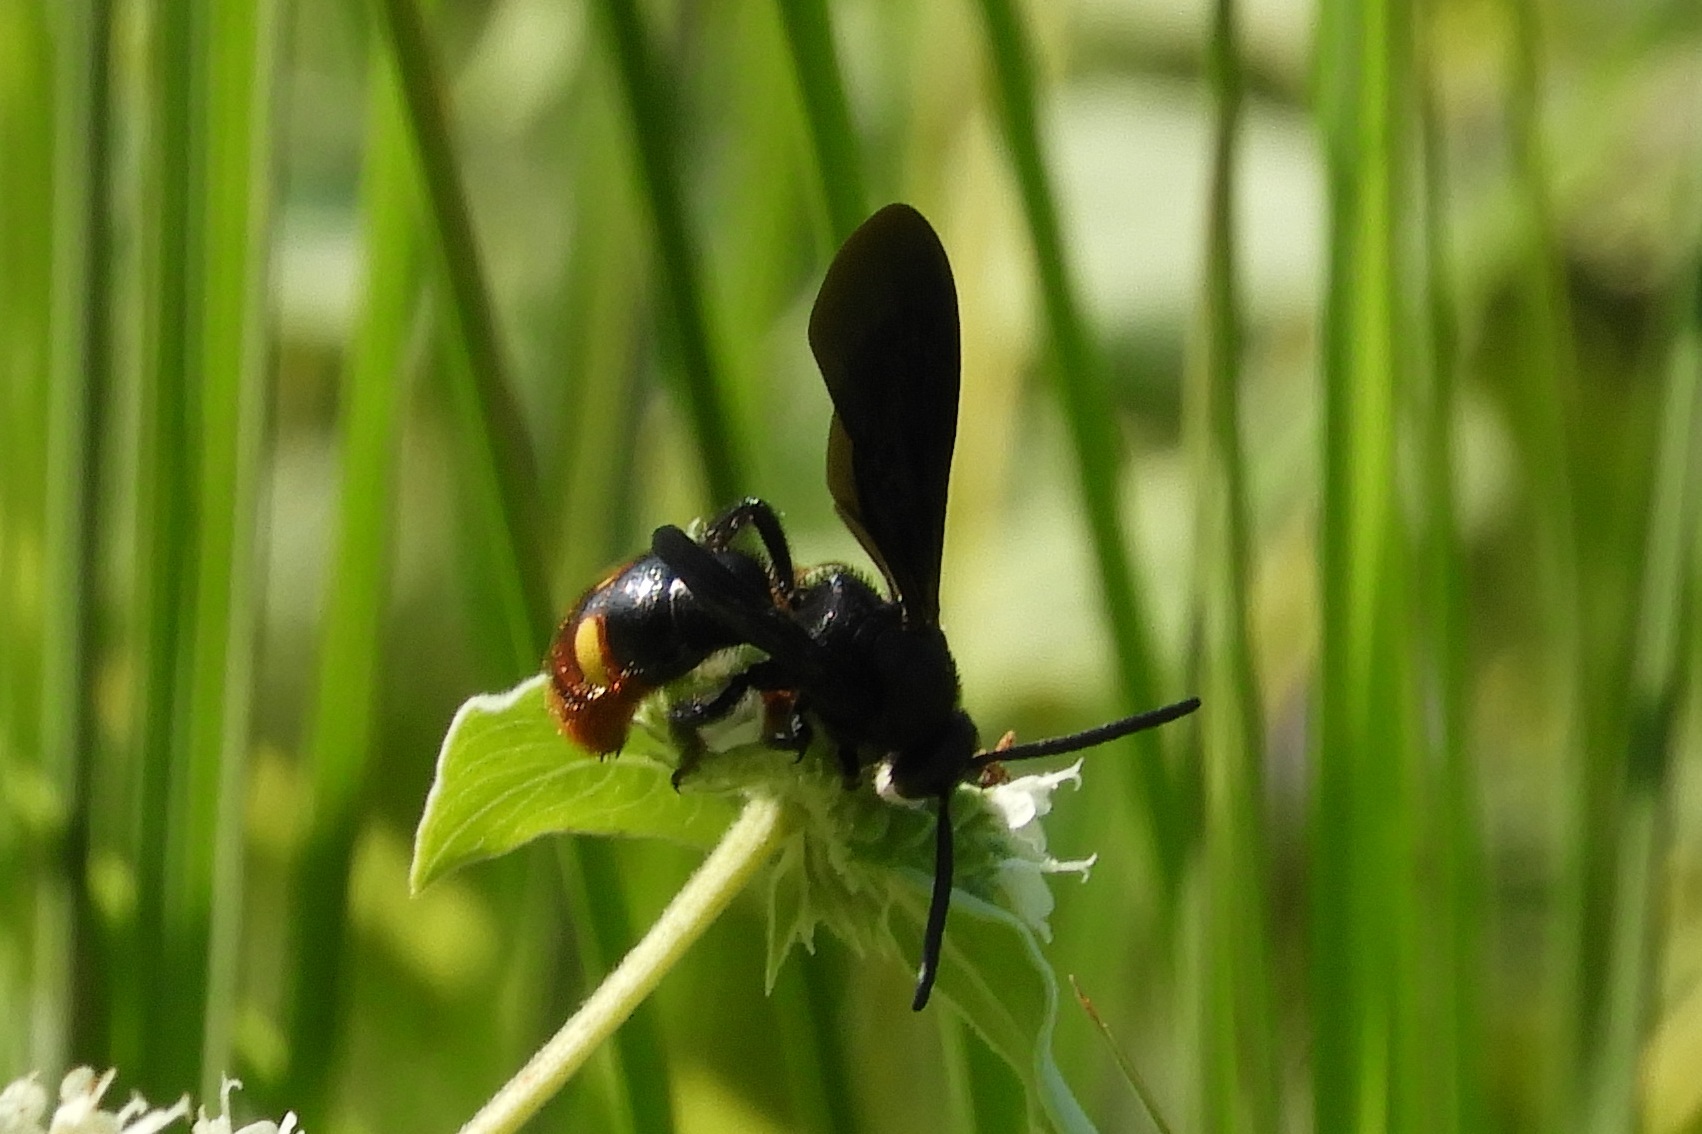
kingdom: Animalia
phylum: Arthropoda
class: Insecta
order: Hymenoptera
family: Scoliidae
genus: Scolia
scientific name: Scolia dubia
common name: Blue-winged scoliid wasp
